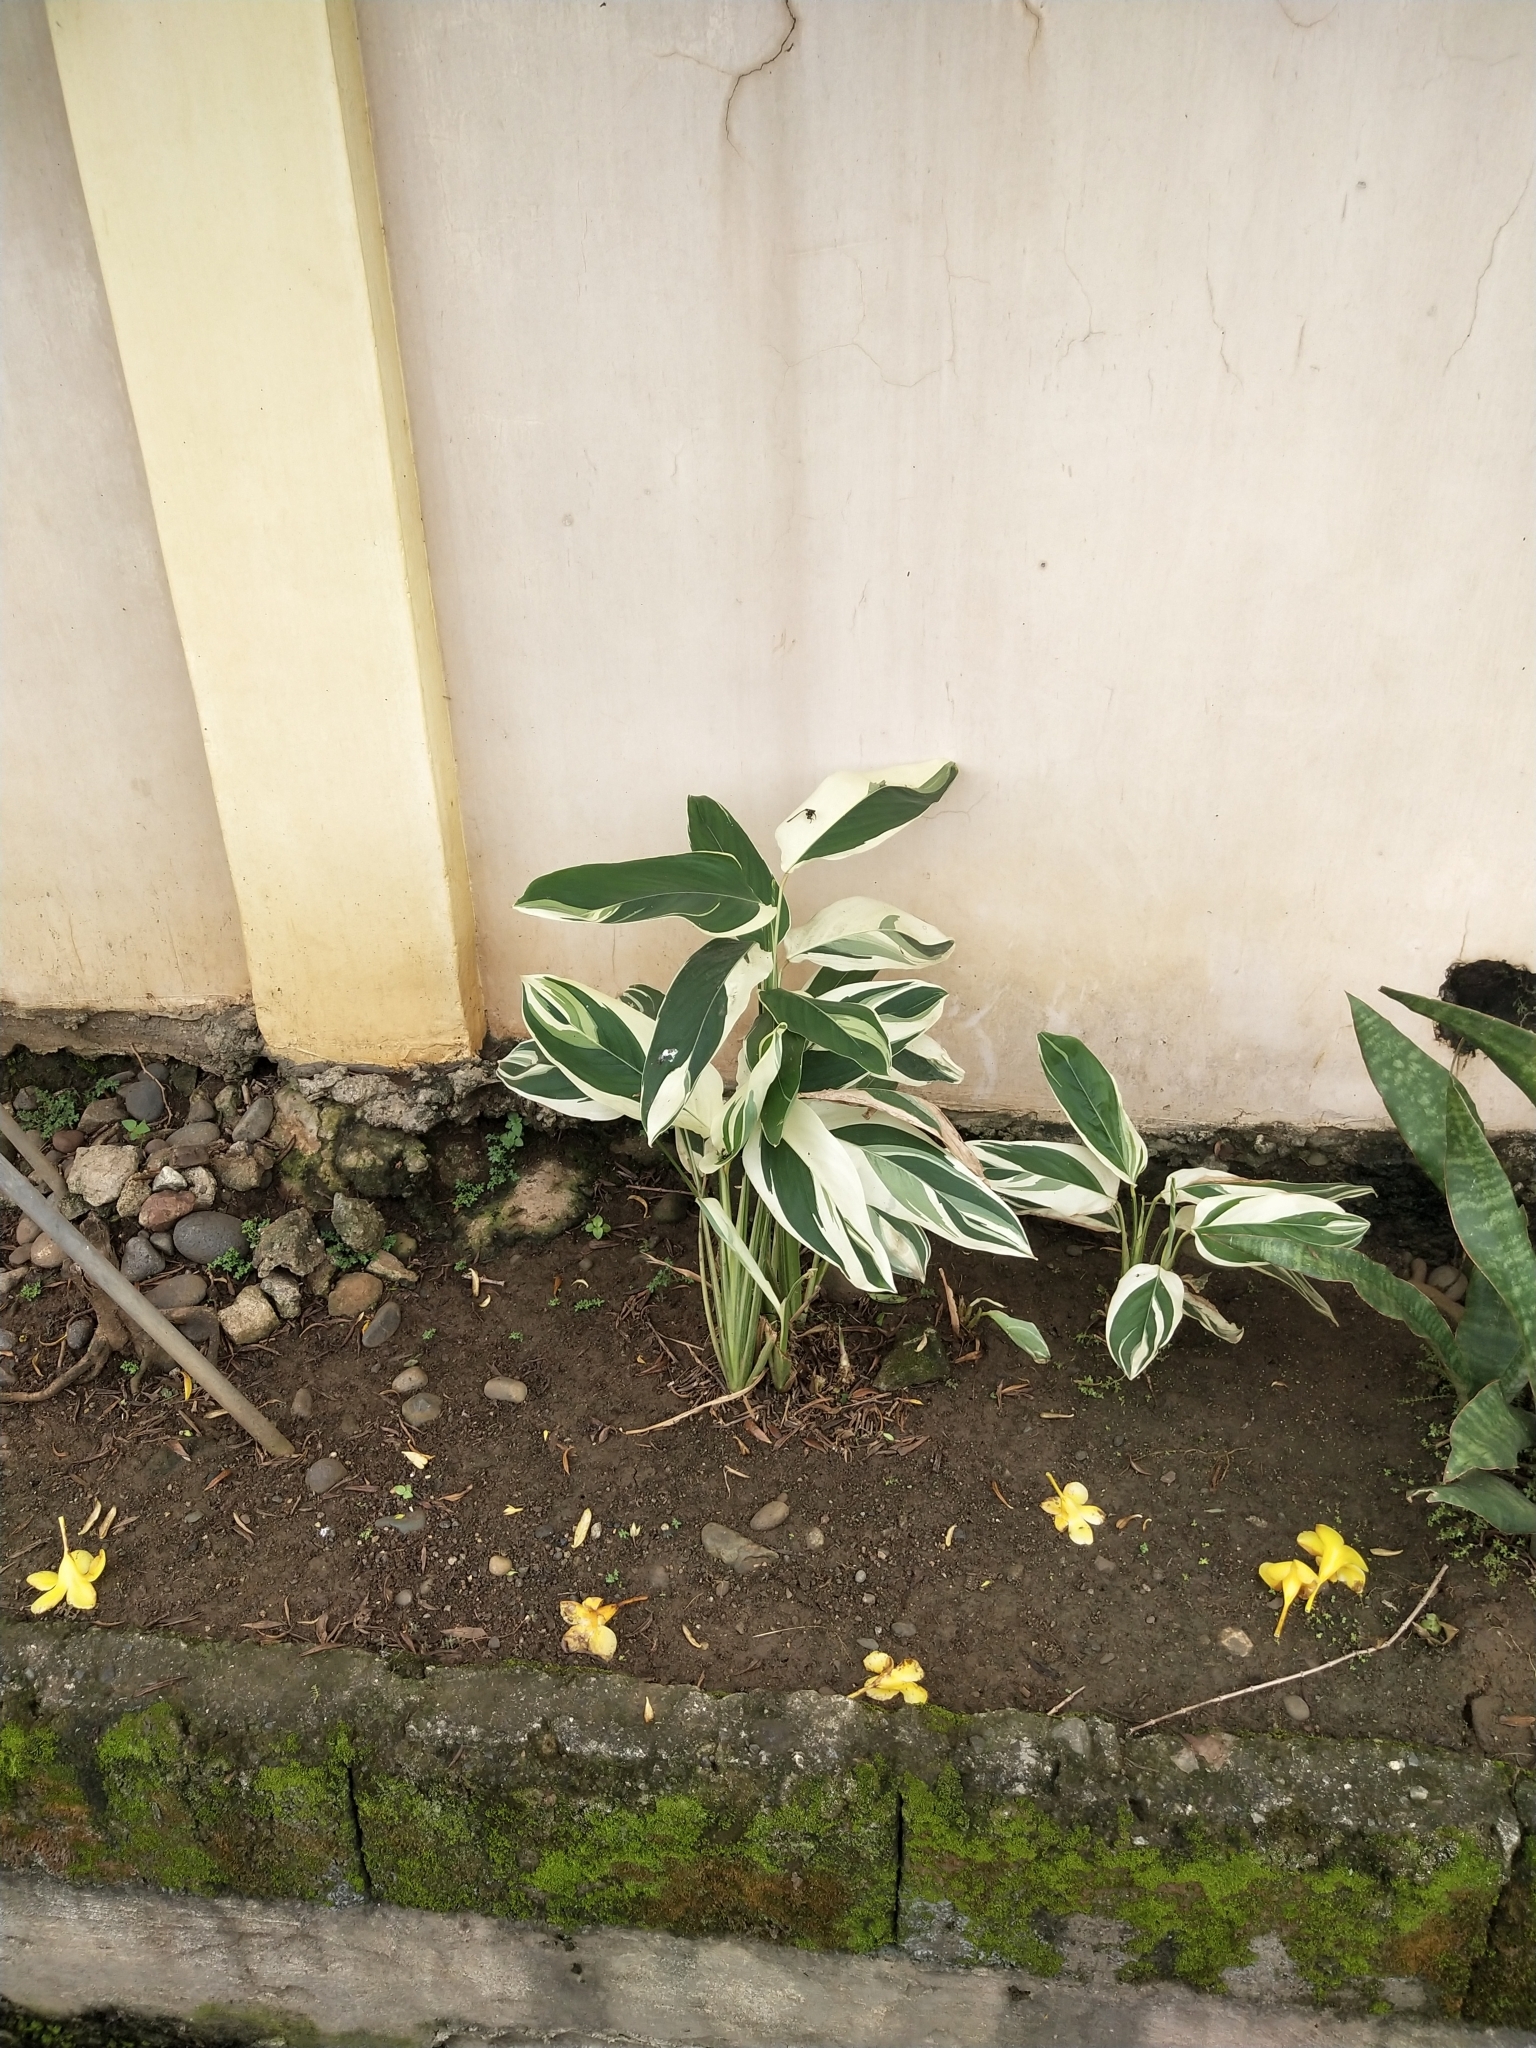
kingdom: Plantae
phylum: Tracheophyta
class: Liliopsida
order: Zingiberales
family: Marantaceae
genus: Maranta
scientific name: Maranta arundinacea
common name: Arrowroot
